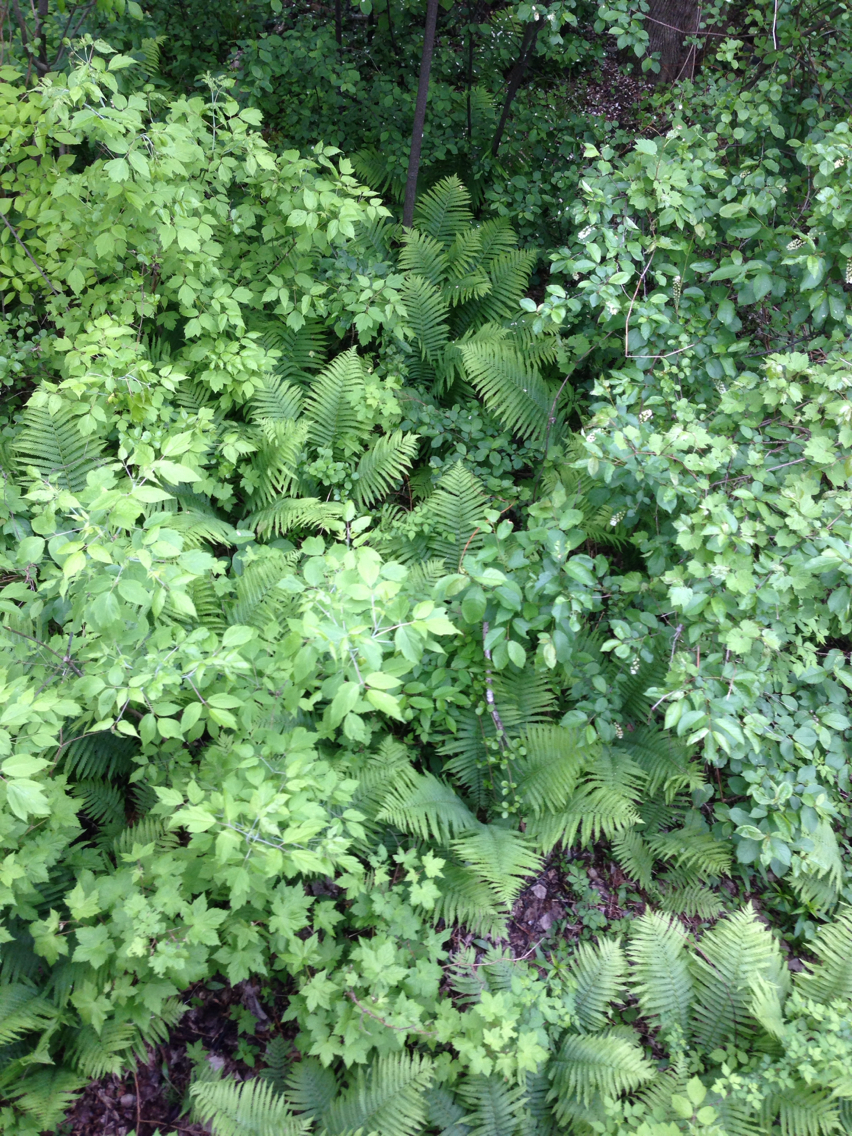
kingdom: Plantae
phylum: Tracheophyta
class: Polypodiopsida
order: Polypodiales
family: Onocleaceae
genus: Matteuccia
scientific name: Matteuccia struthiopteris
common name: Ostrich fern
